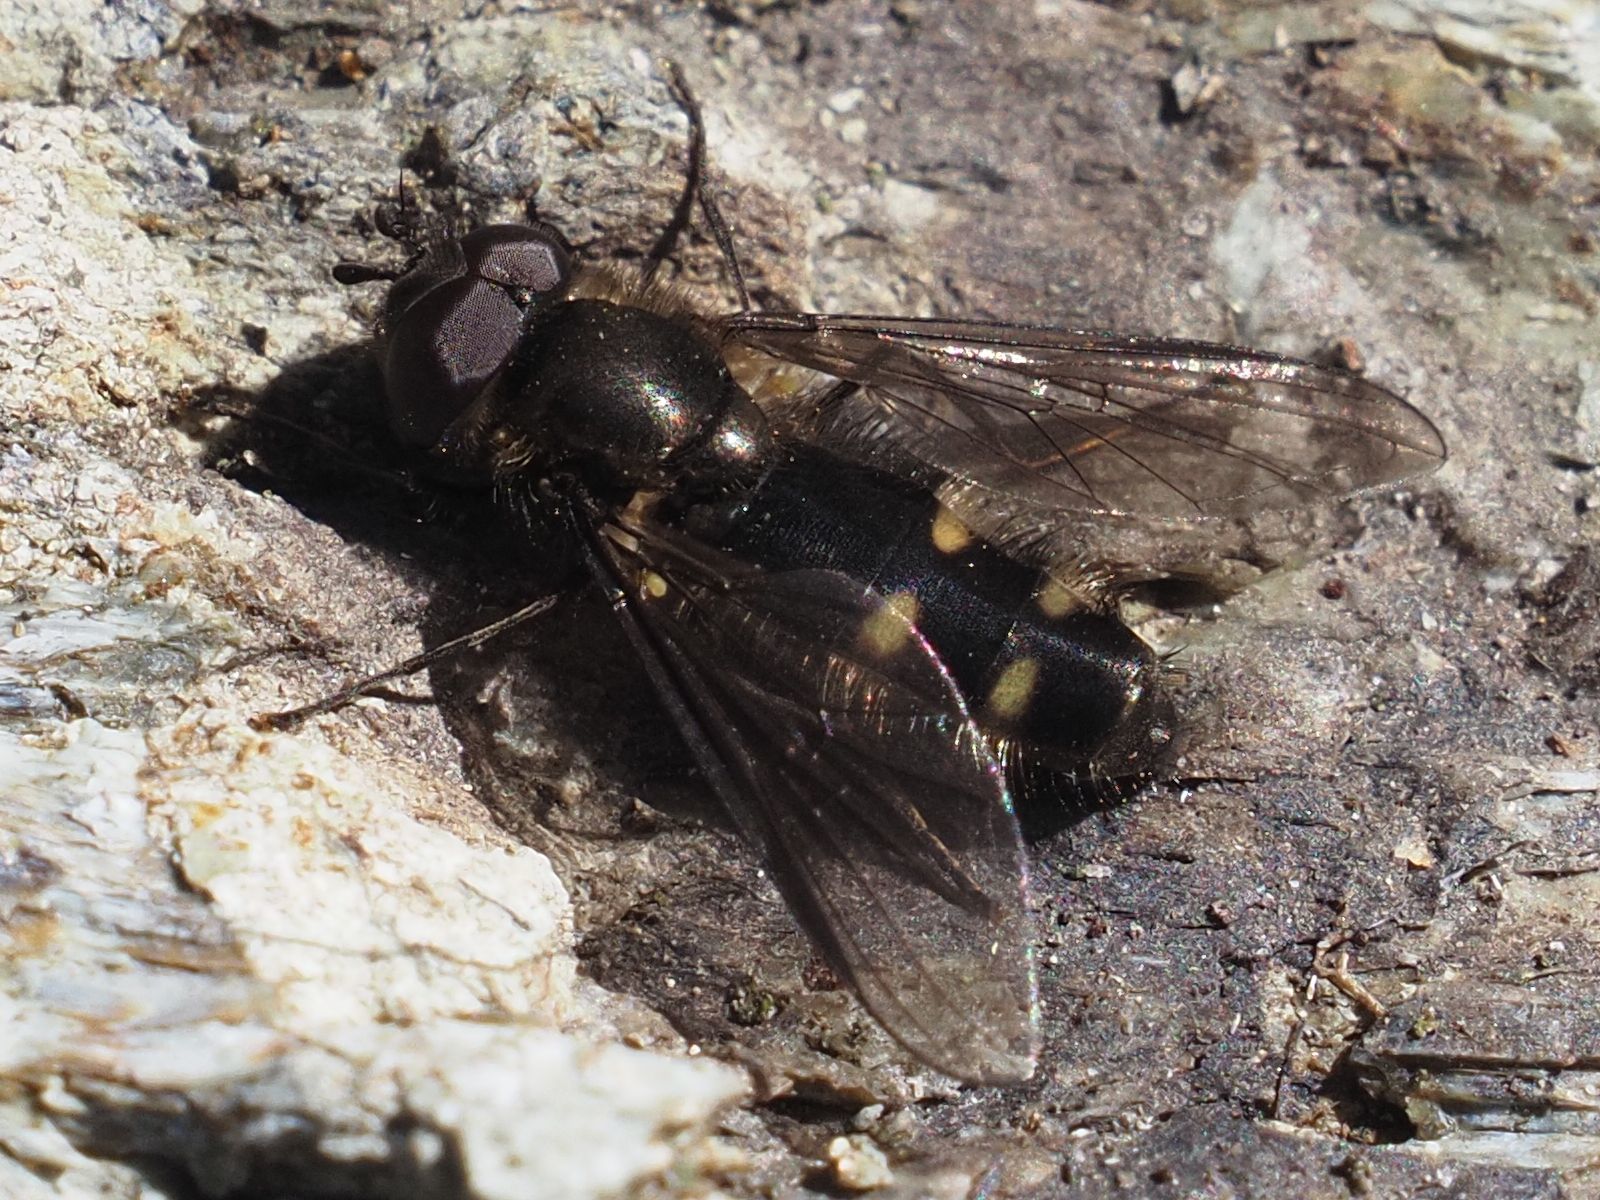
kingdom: Animalia
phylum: Arthropoda
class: Insecta
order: Diptera
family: Syrphidae
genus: Melangyna
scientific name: Melangyna quadrimaculata
